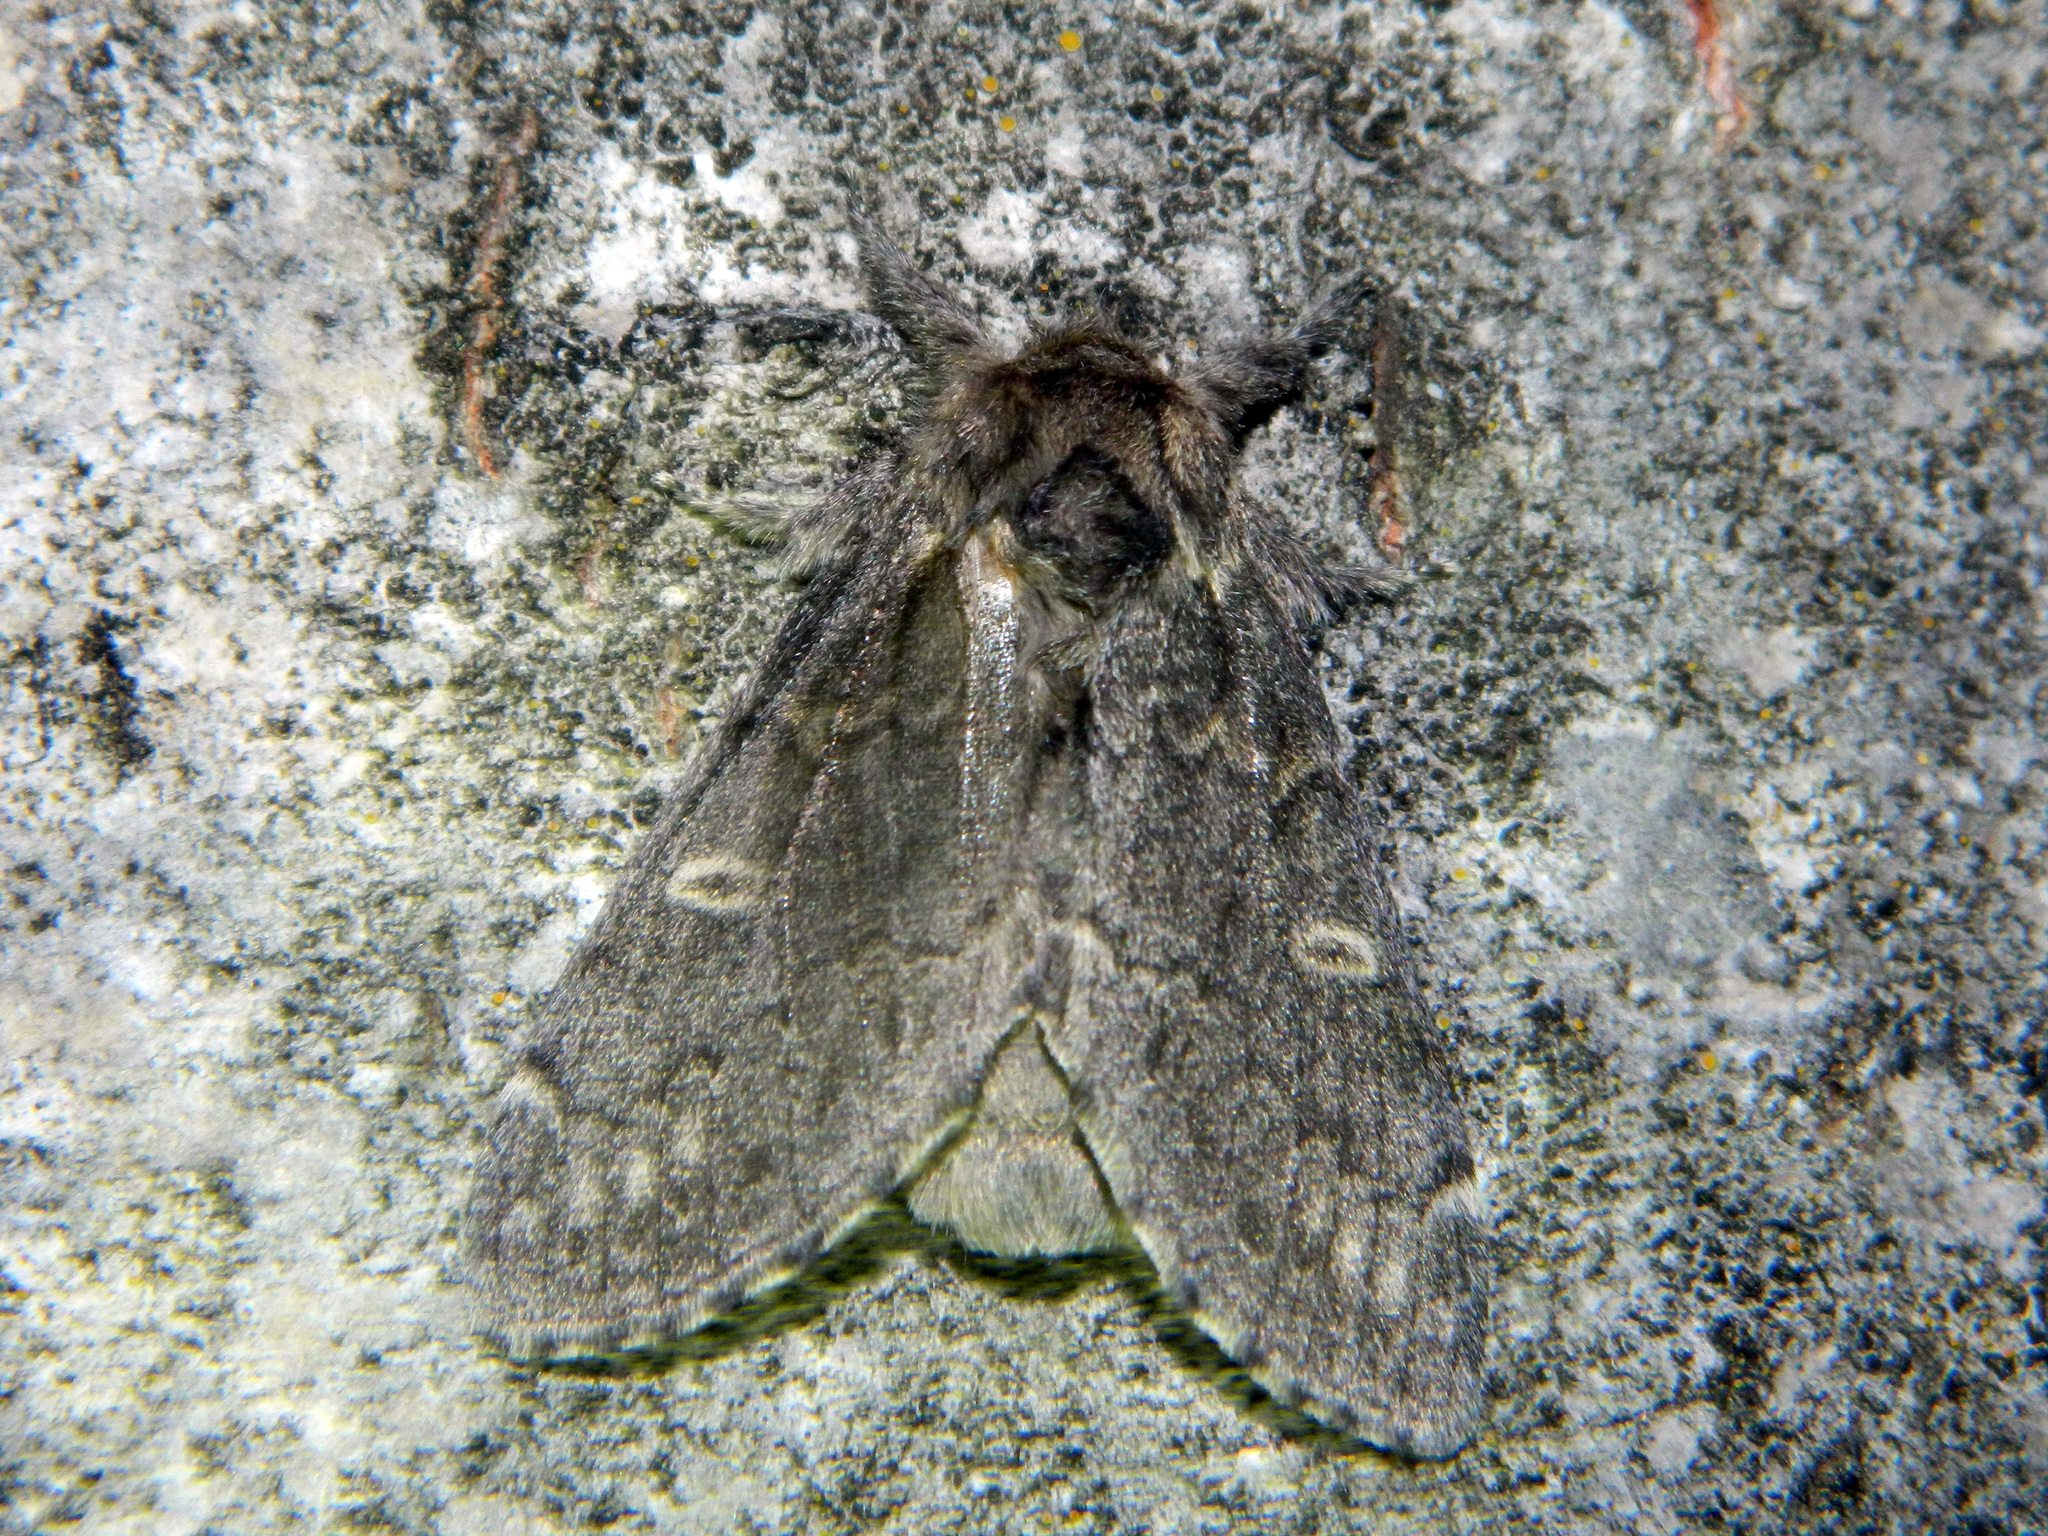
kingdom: Animalia
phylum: Arthropoda
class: Insecta
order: Lepidoptera
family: Notodontidae
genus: Notodonta
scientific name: Notodonta torva
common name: Large dark prominent
